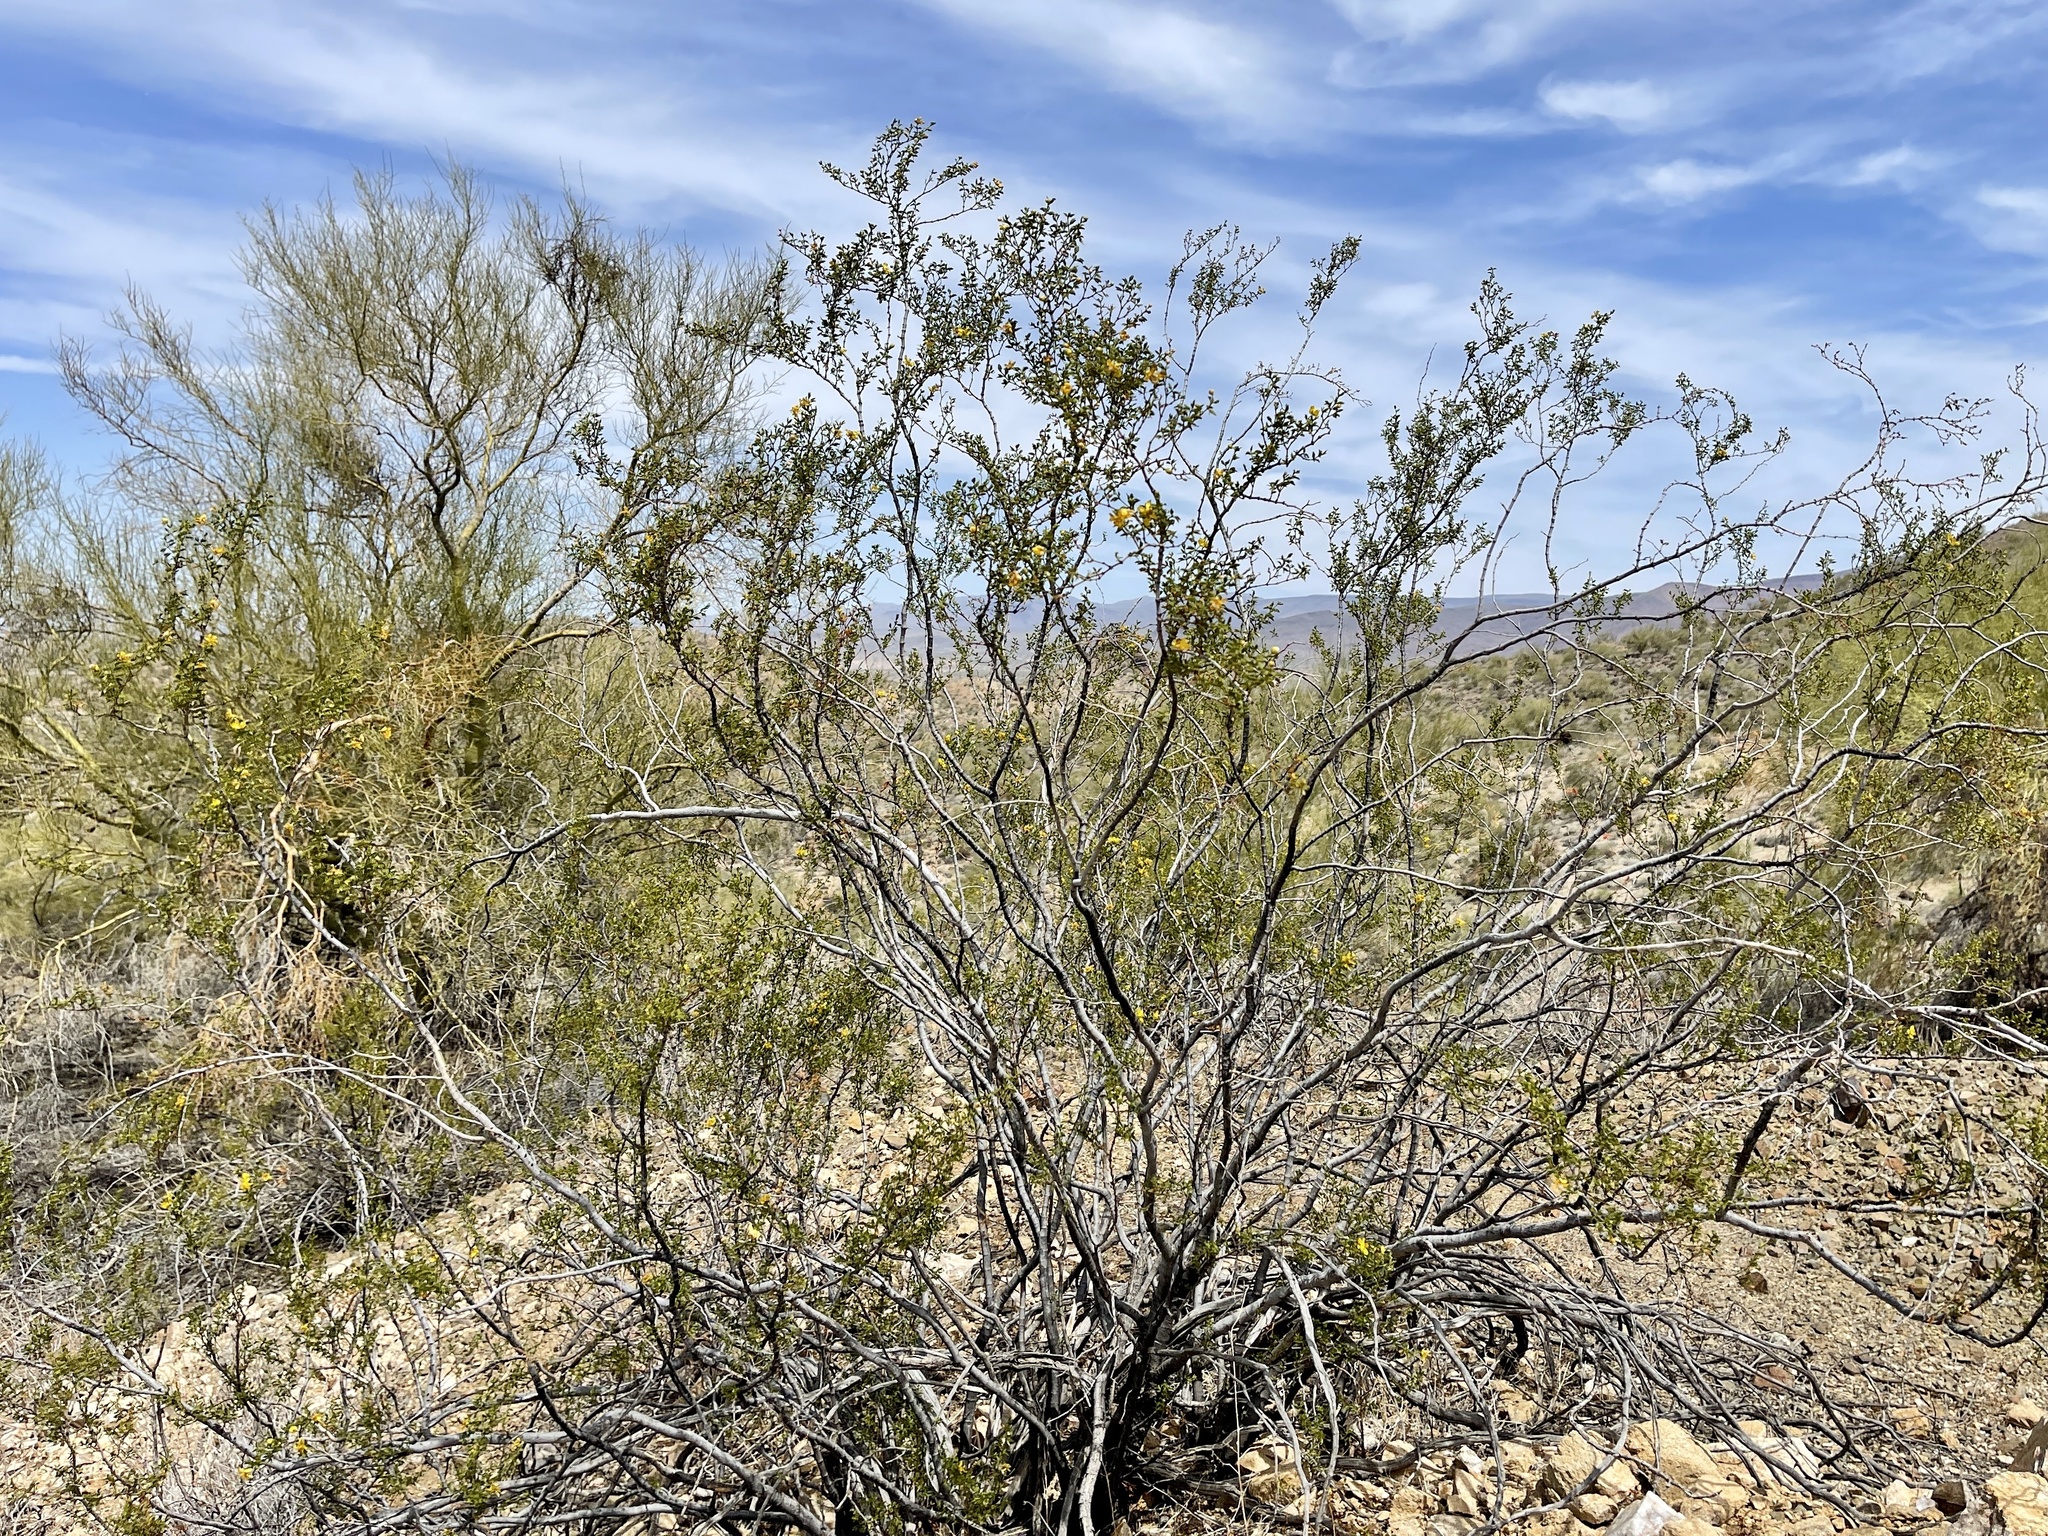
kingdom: Plantae
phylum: Tracheophyta
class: Magnoliopsida
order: Zygophyllales
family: Zygophyllaceae
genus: Larrea
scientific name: Larrea tridentata
